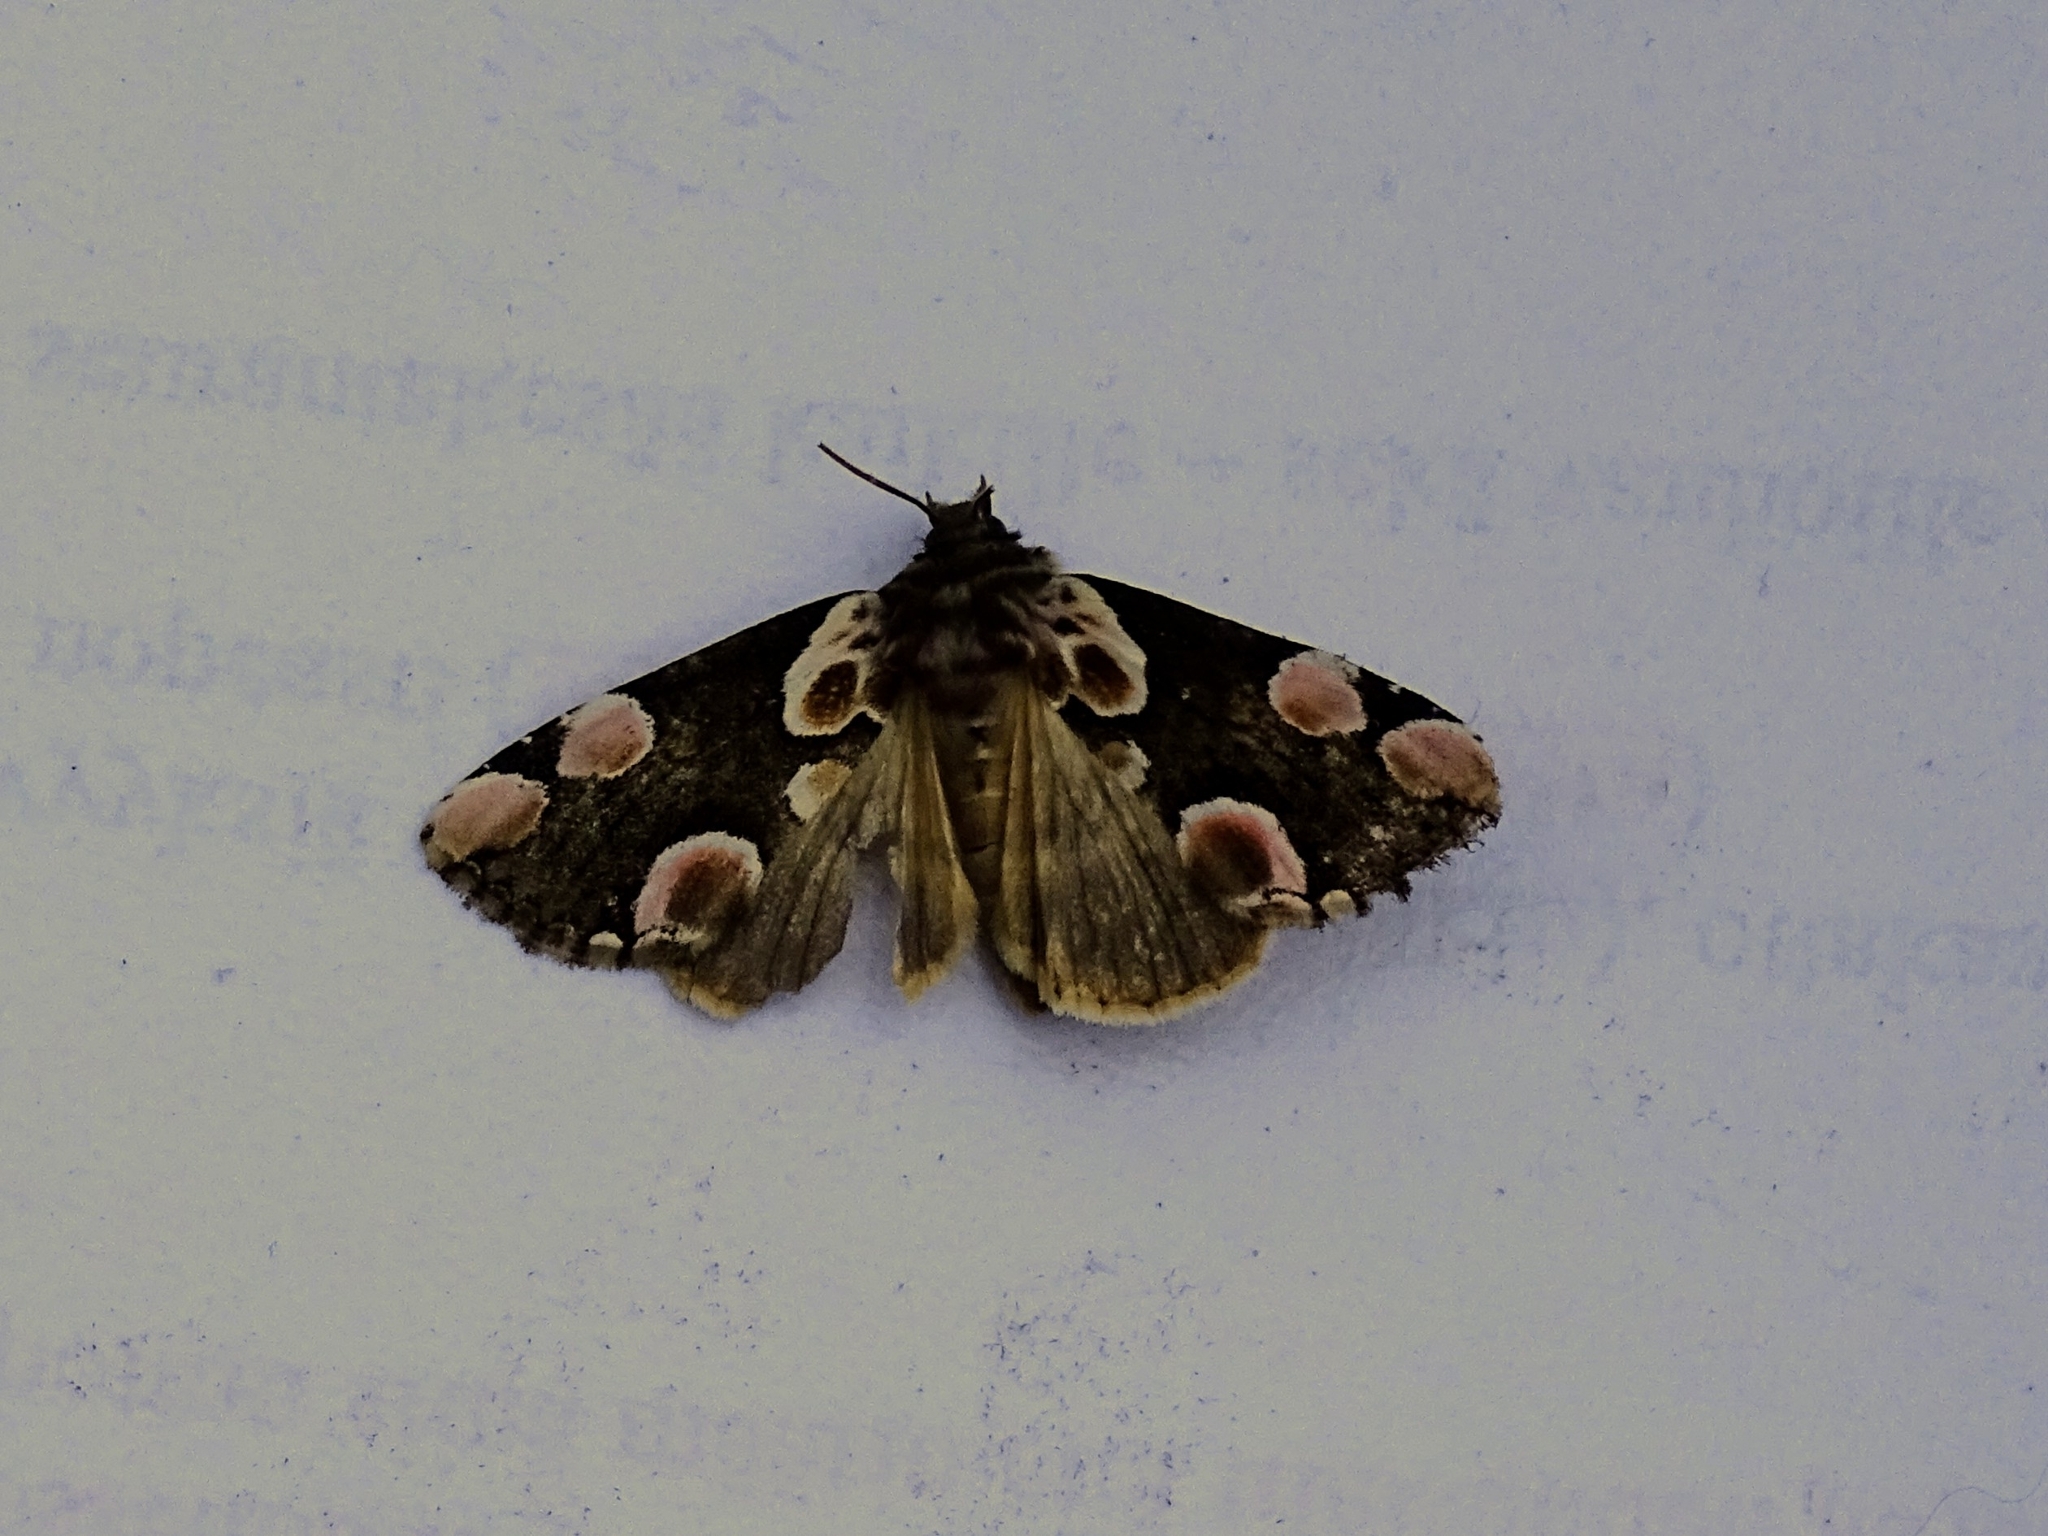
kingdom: Animalia
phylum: Arthropoda
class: Insecta
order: Lepidoptera
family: Drepanidae
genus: Thyatira
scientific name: Thyatira batis
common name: Peach blossom
